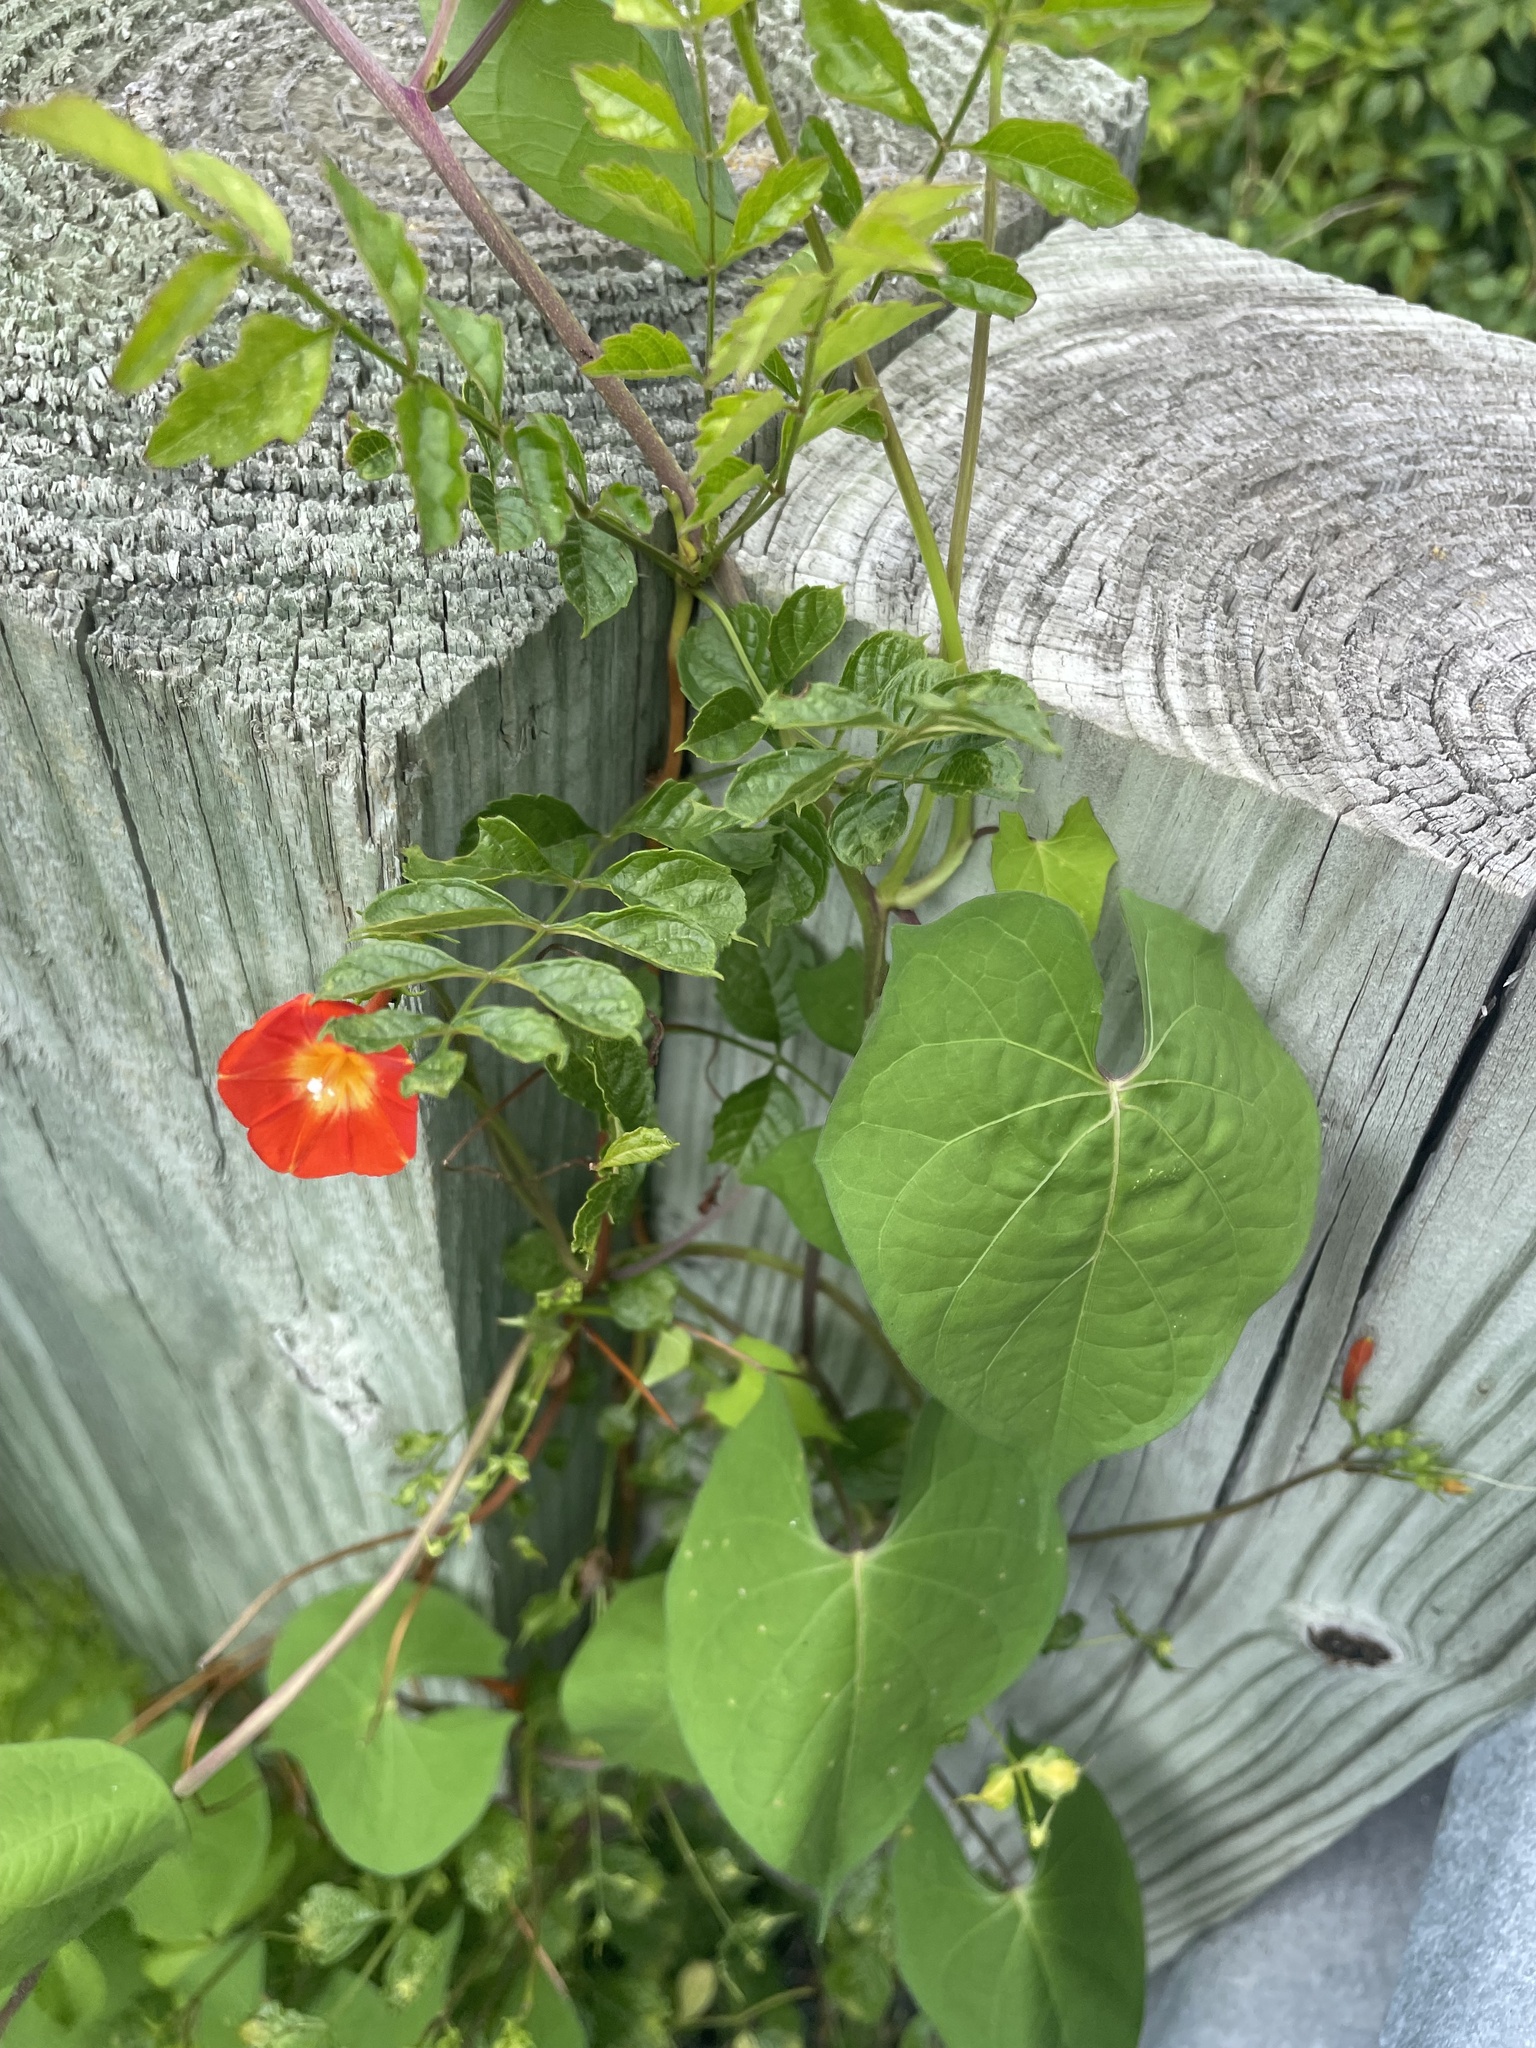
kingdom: Plantae
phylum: Tracheophyta
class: Magnoliopsida
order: Solanales
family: Convolvulaceae
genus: Ipomoea
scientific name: Ipomoea coccinea
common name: Red morning-glory
